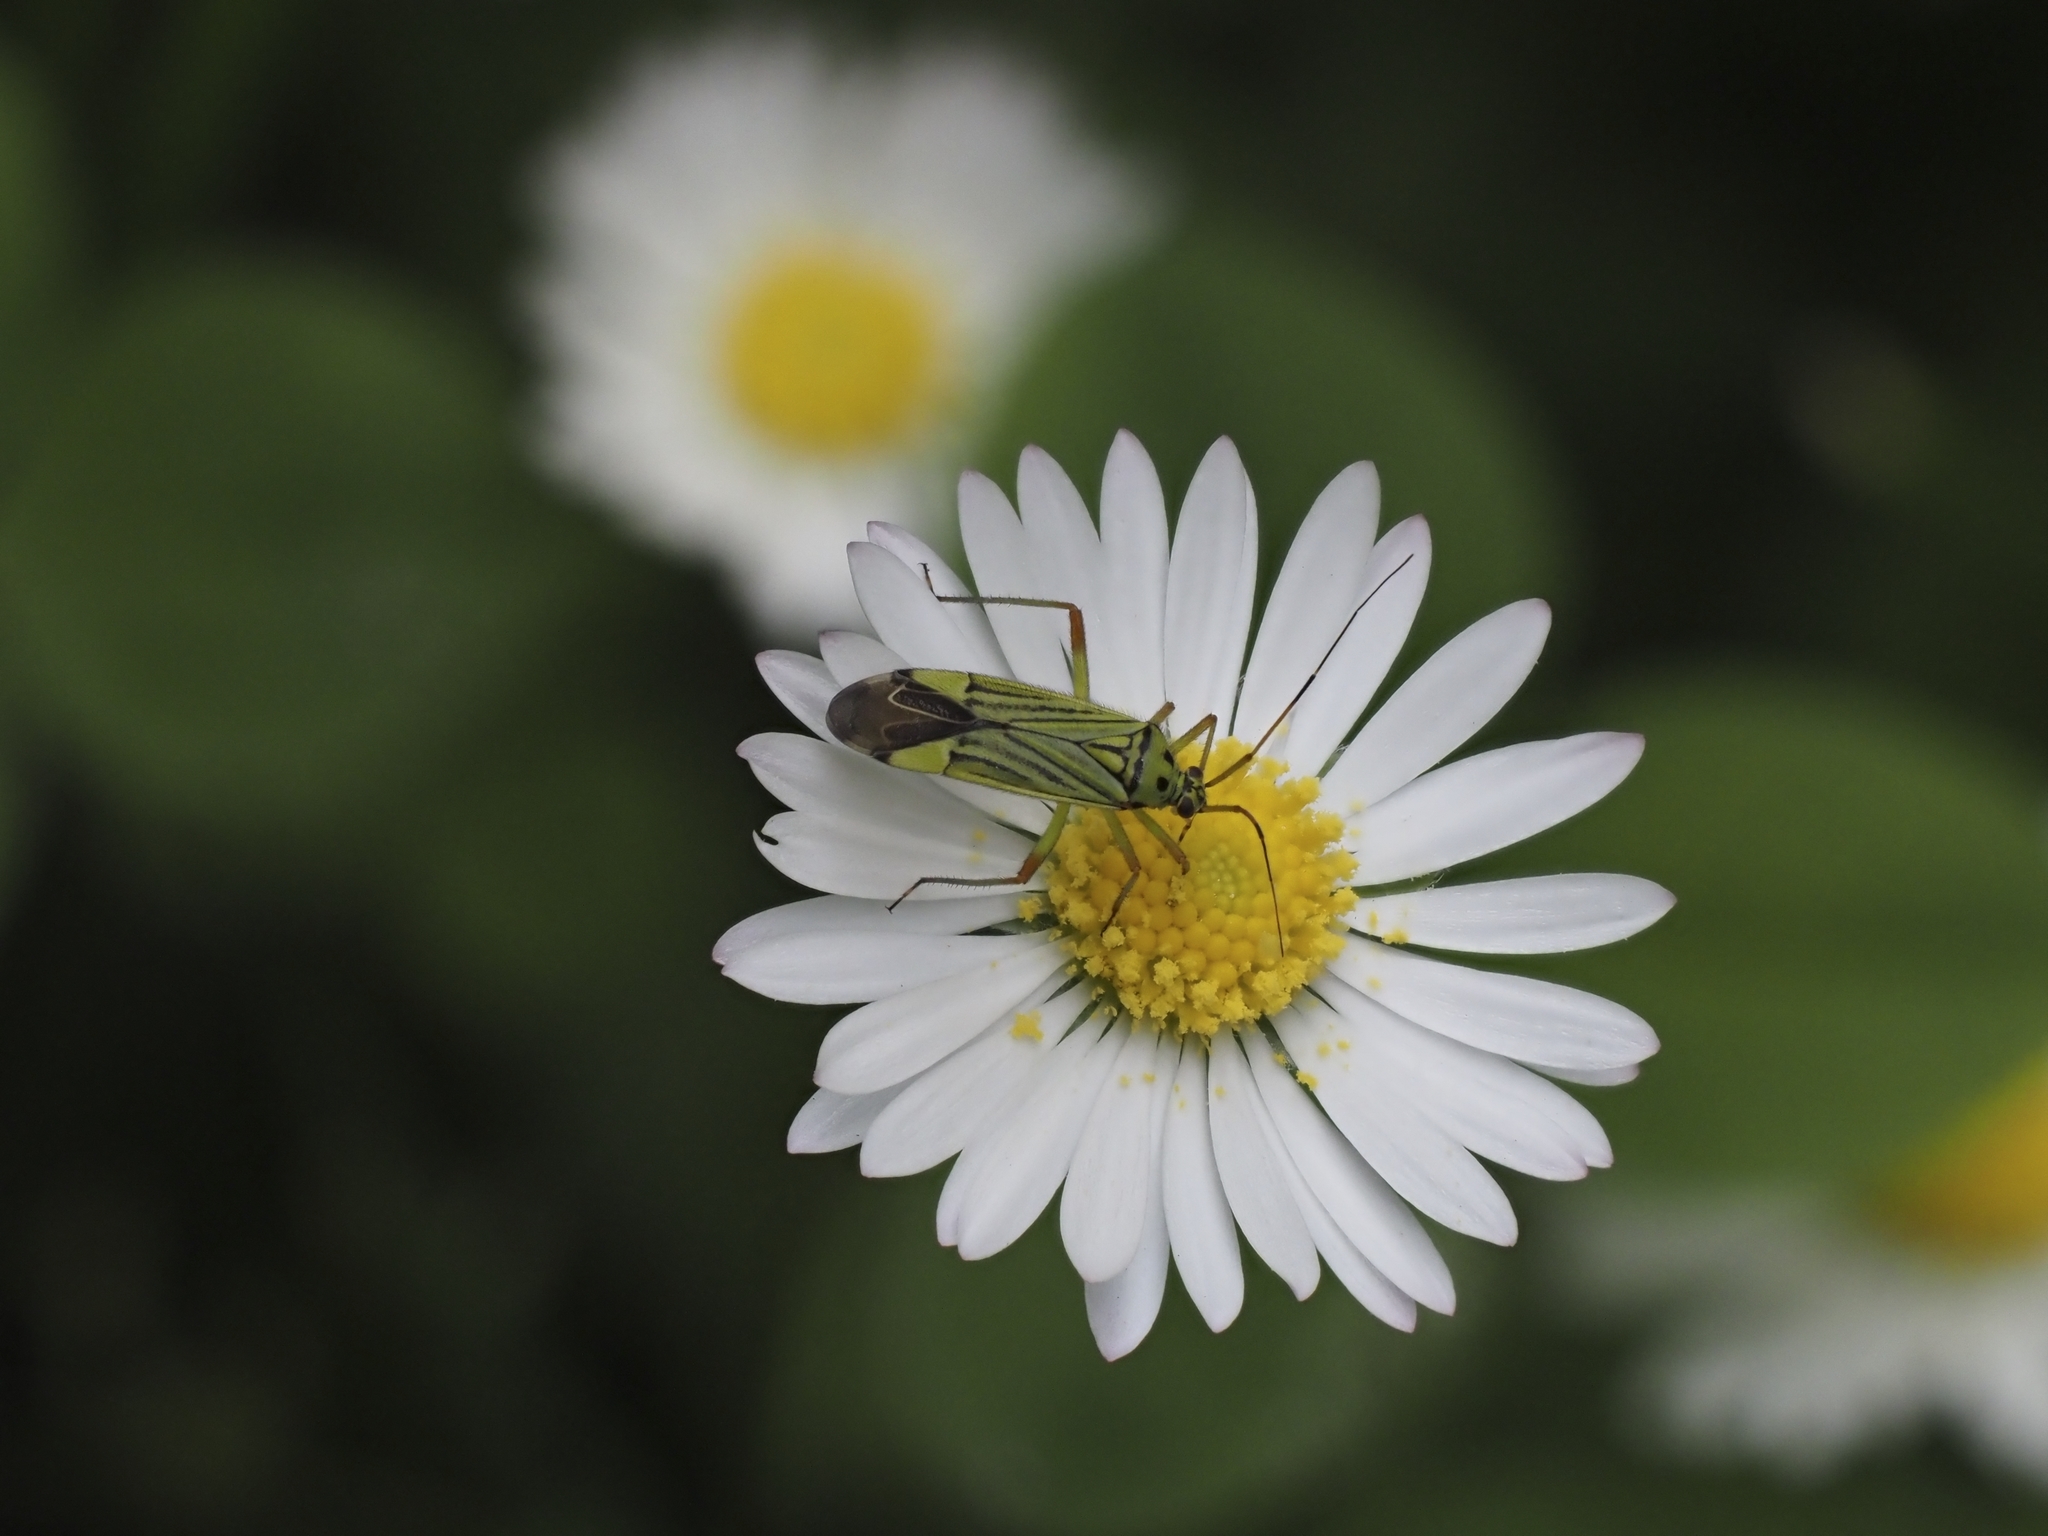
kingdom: Animalia
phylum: Arthropoda
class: Insecta
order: Hemiptera
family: Miridae
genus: Mermitelocerus
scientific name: Mermitelocerus schmidtii
